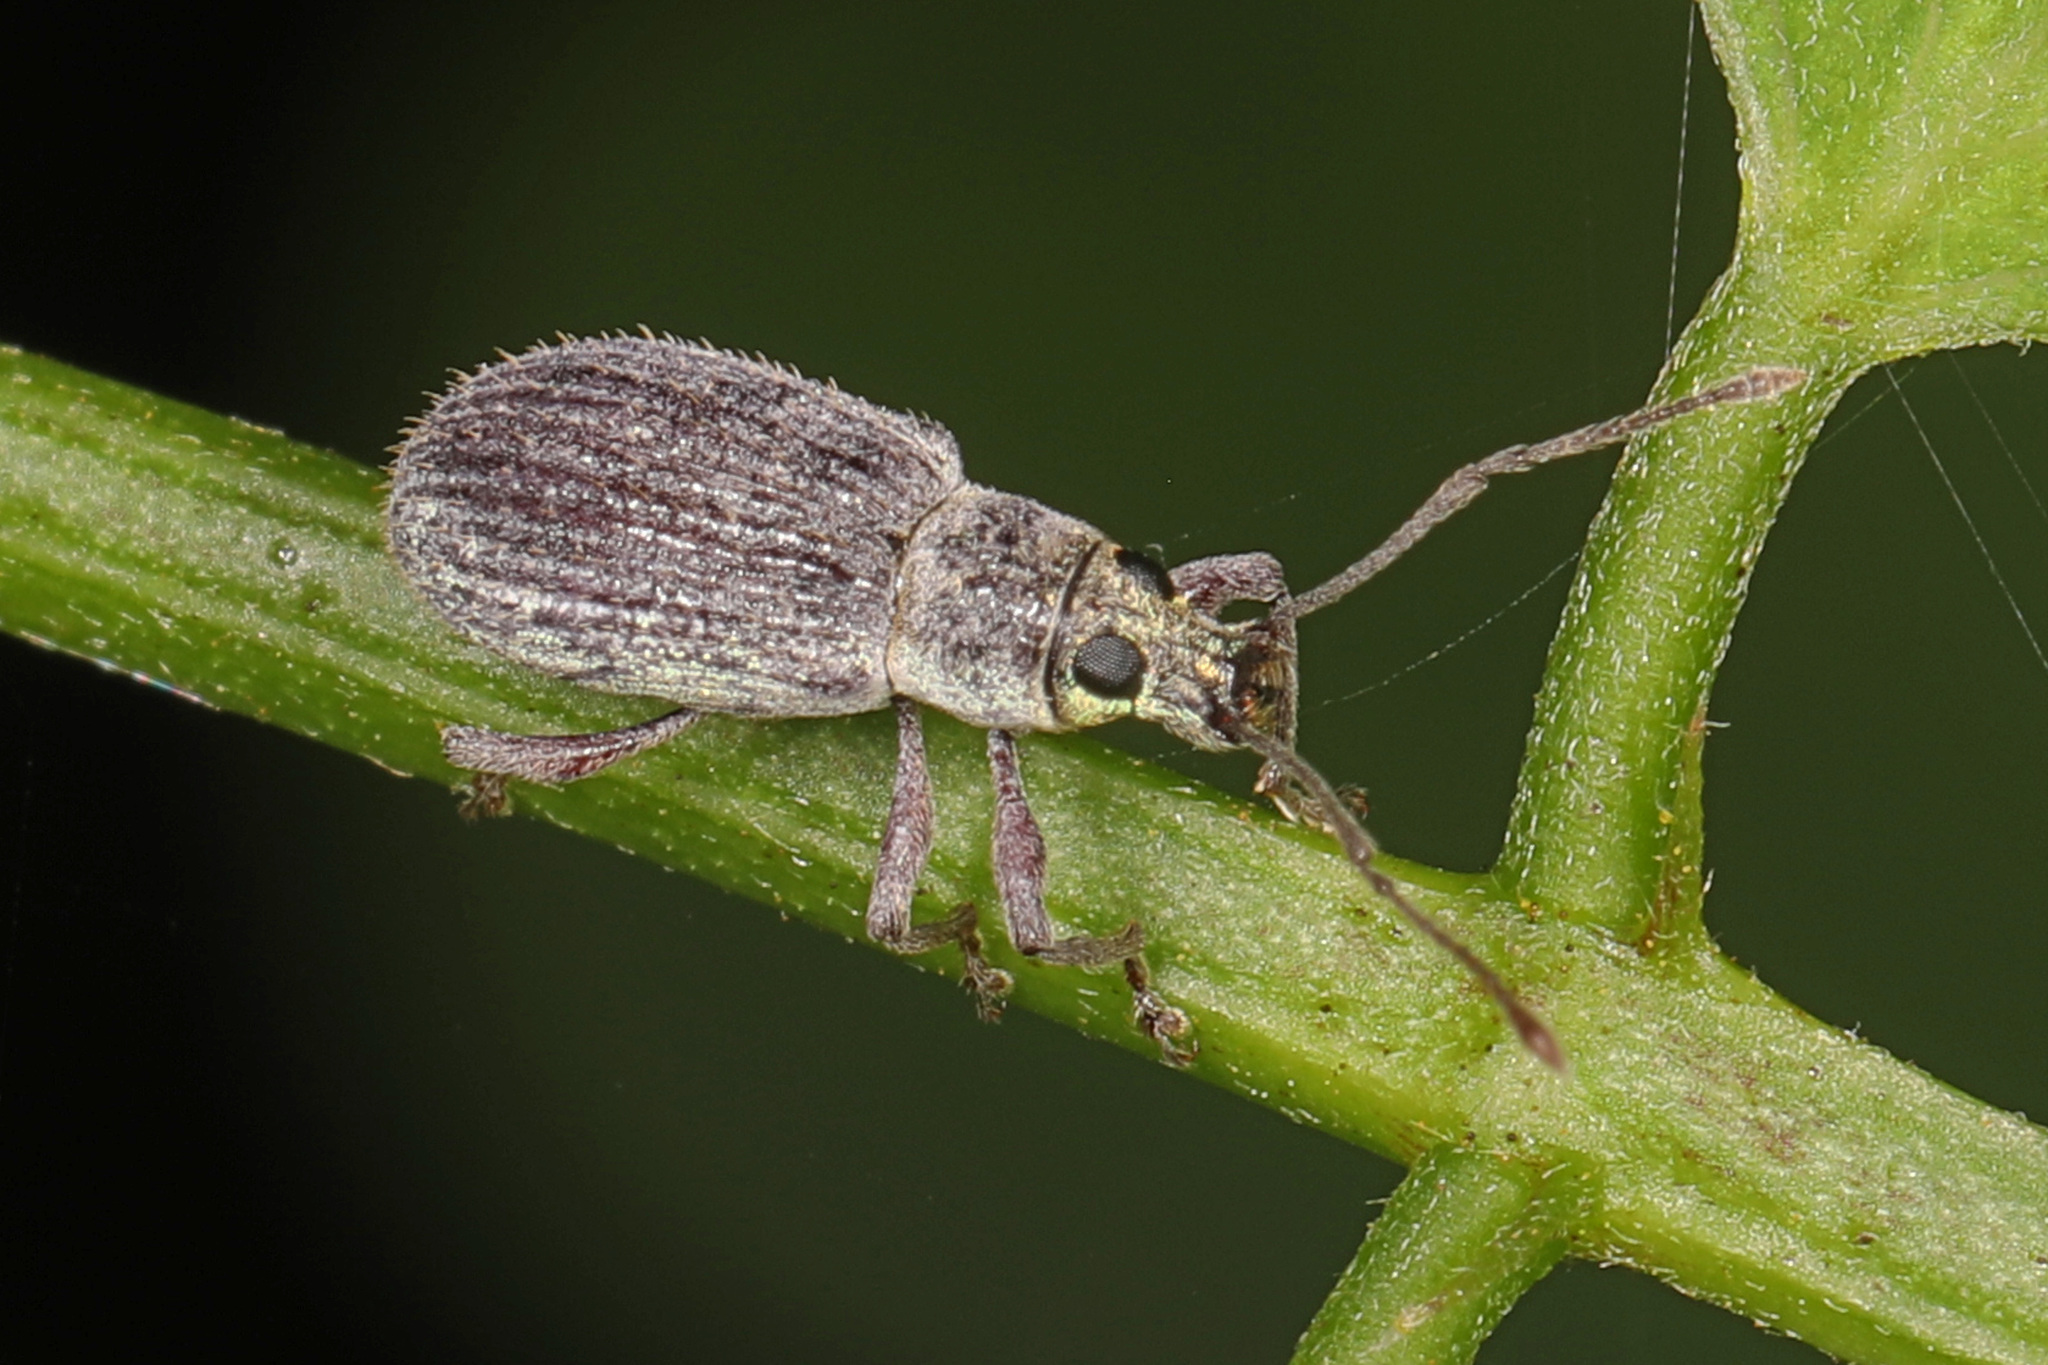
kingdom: Animalia
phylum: Arthropoda
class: Insecta
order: Coleoptera
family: Curculionidae
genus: Cyrtepistomus
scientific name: Cyrtepistomus castaneus
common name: Weevil
